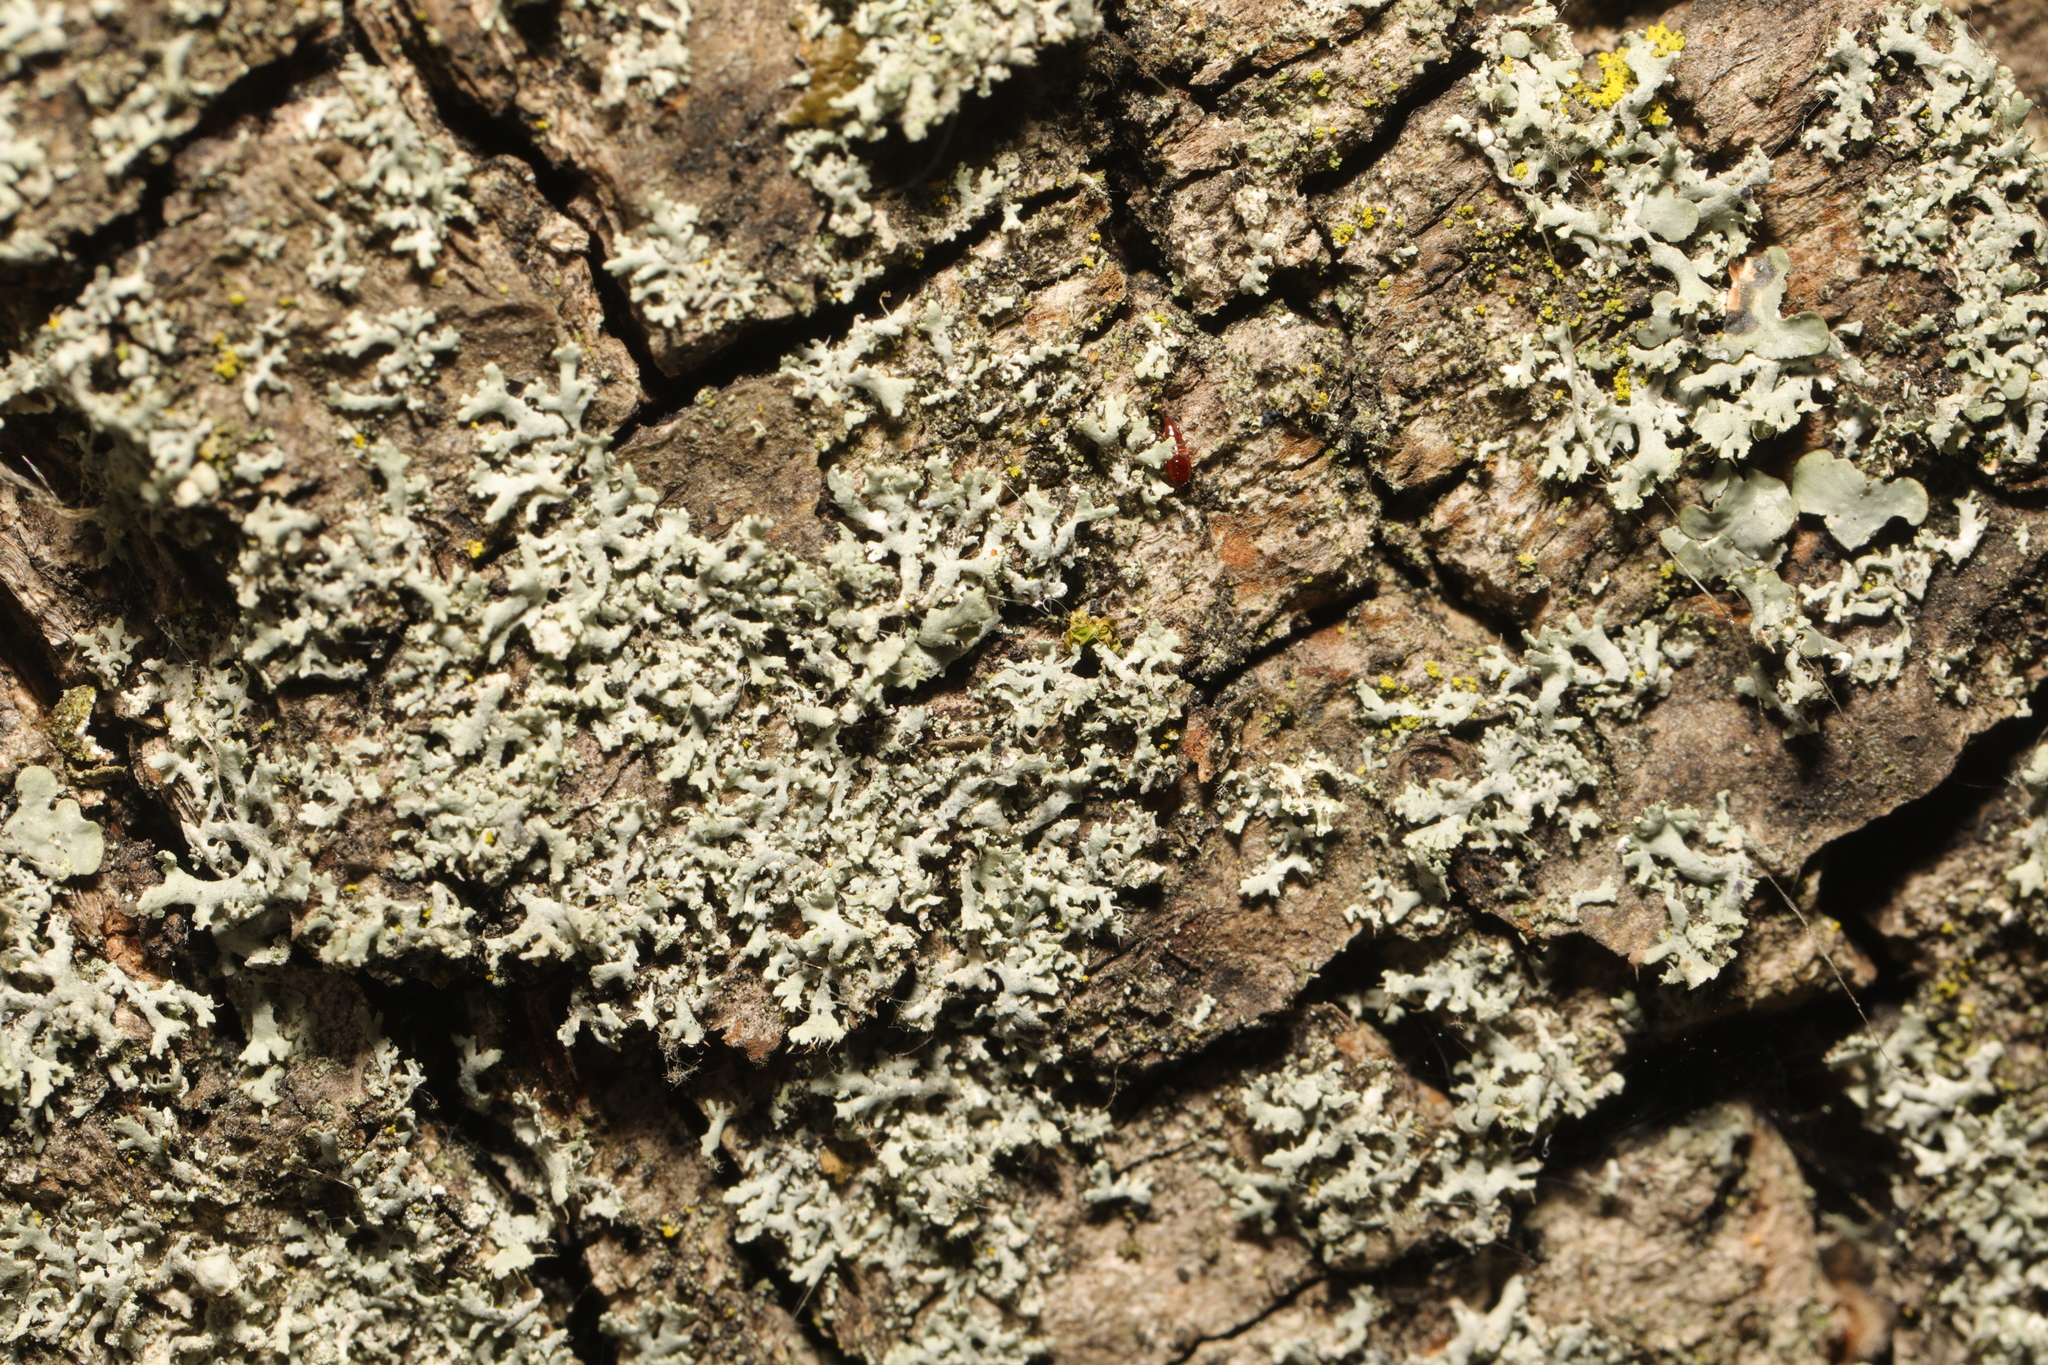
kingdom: Fungi
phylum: Ascomycota
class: Lecanoromycetes
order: Caliciales
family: Physciaceae
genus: Physcia
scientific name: Physcia tenella
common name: Fringed rosette lichen
